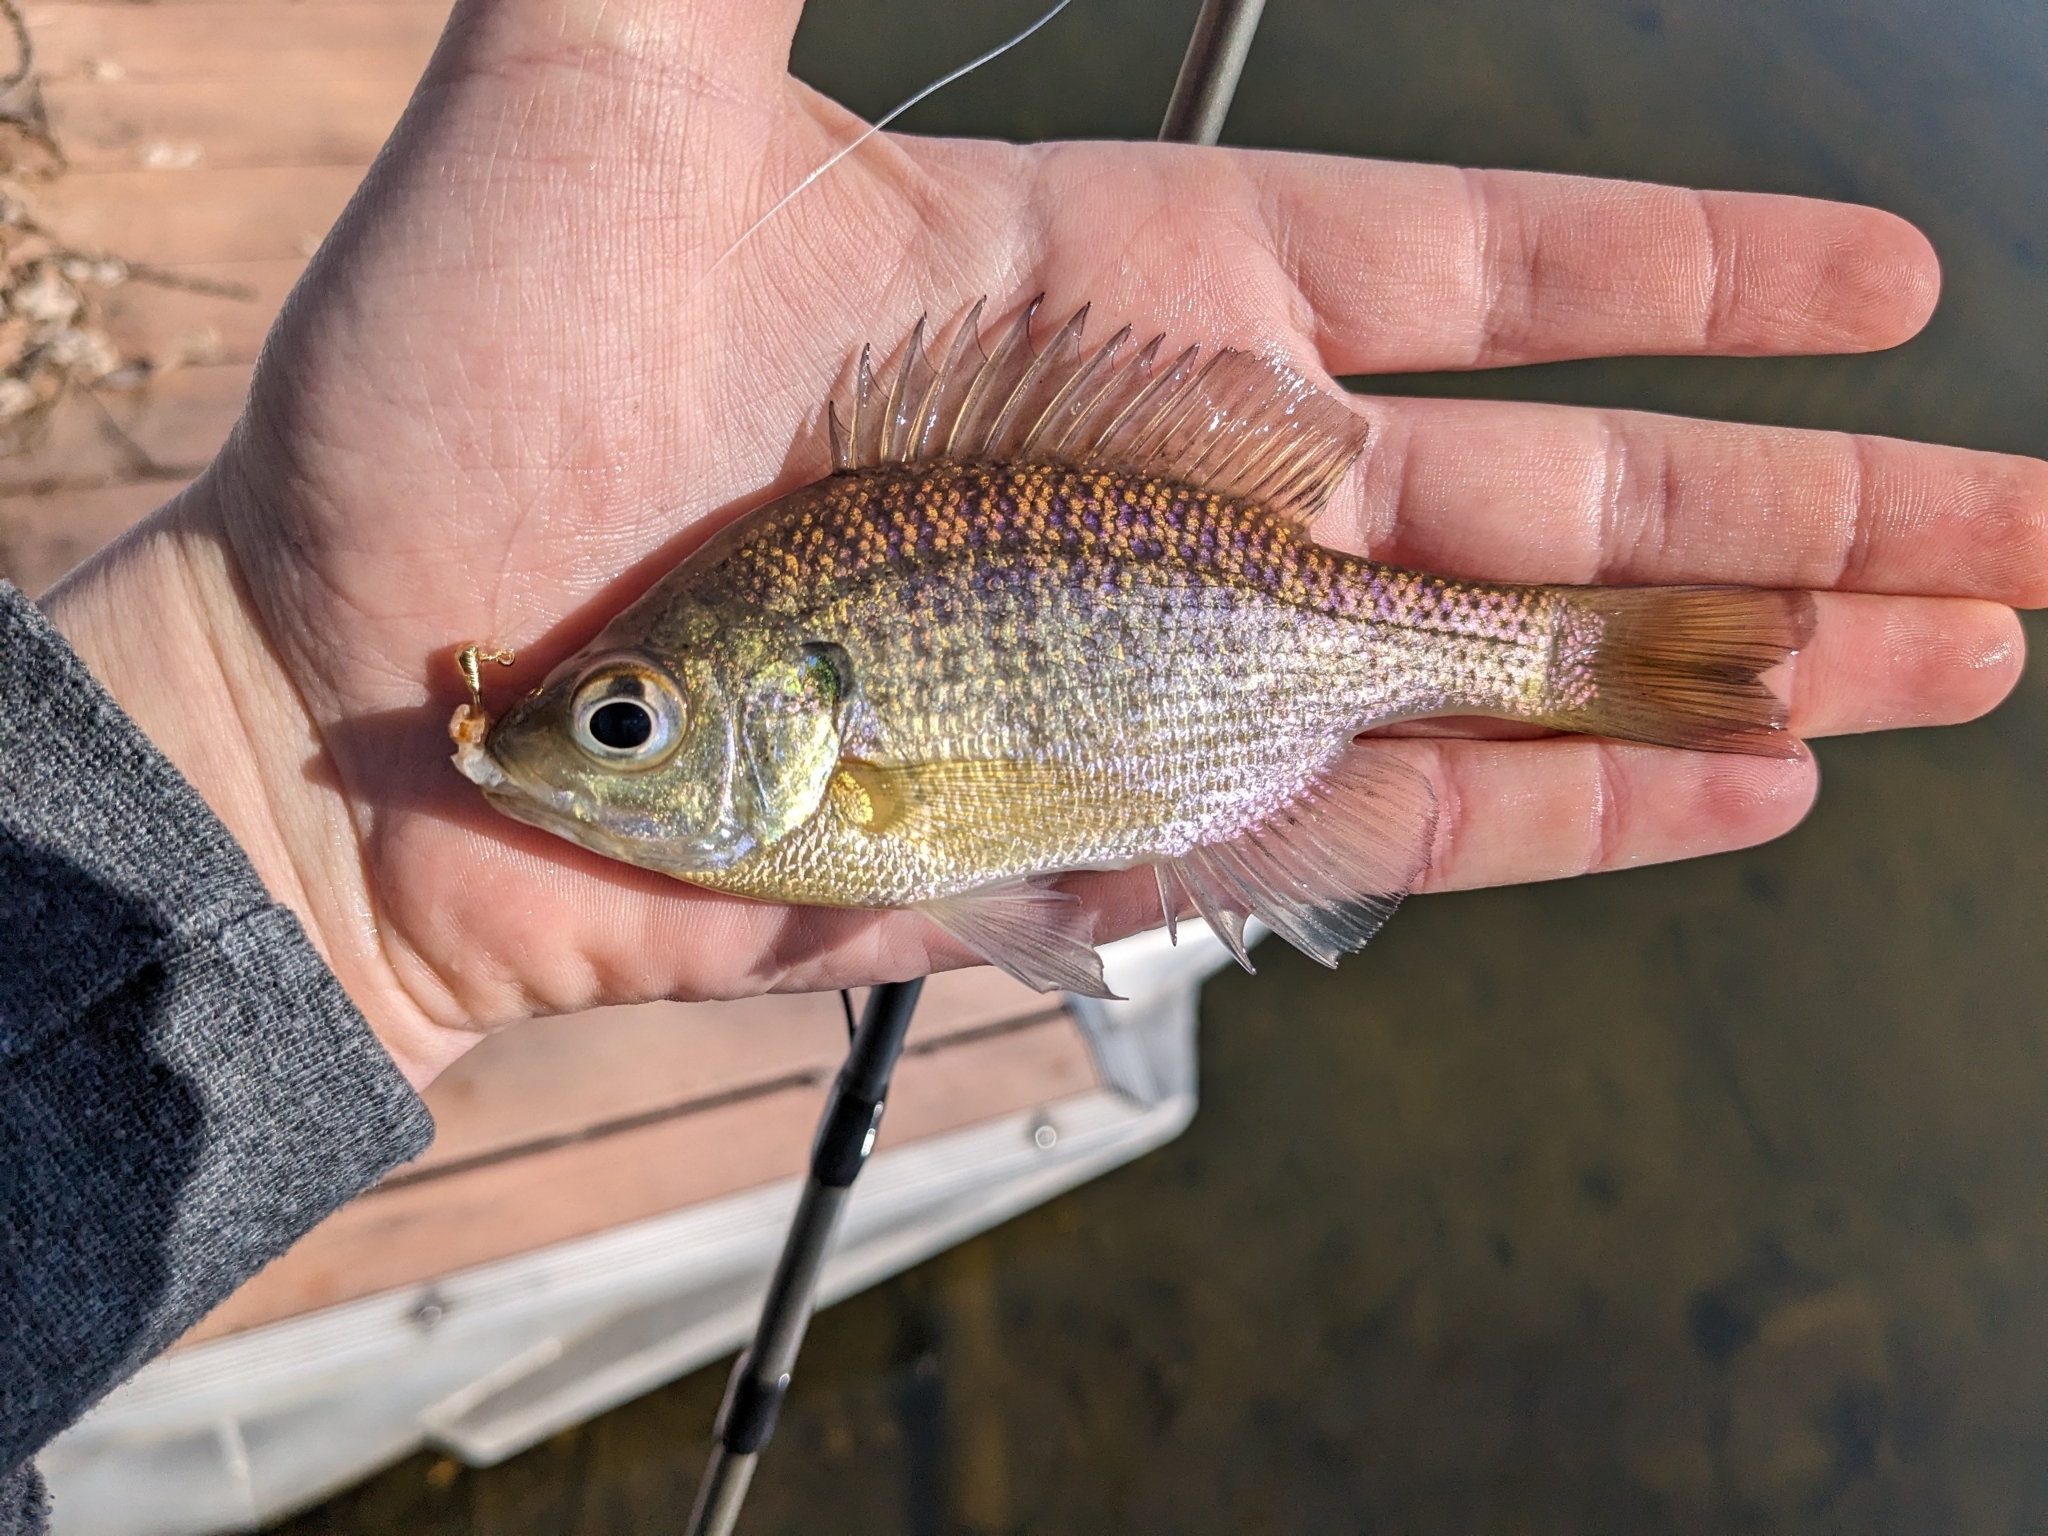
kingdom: Animalia
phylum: Chordata
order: Perciformes
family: Centrarchidae
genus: Lepomis
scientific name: Lepomis macrochirus
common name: Bluegill
